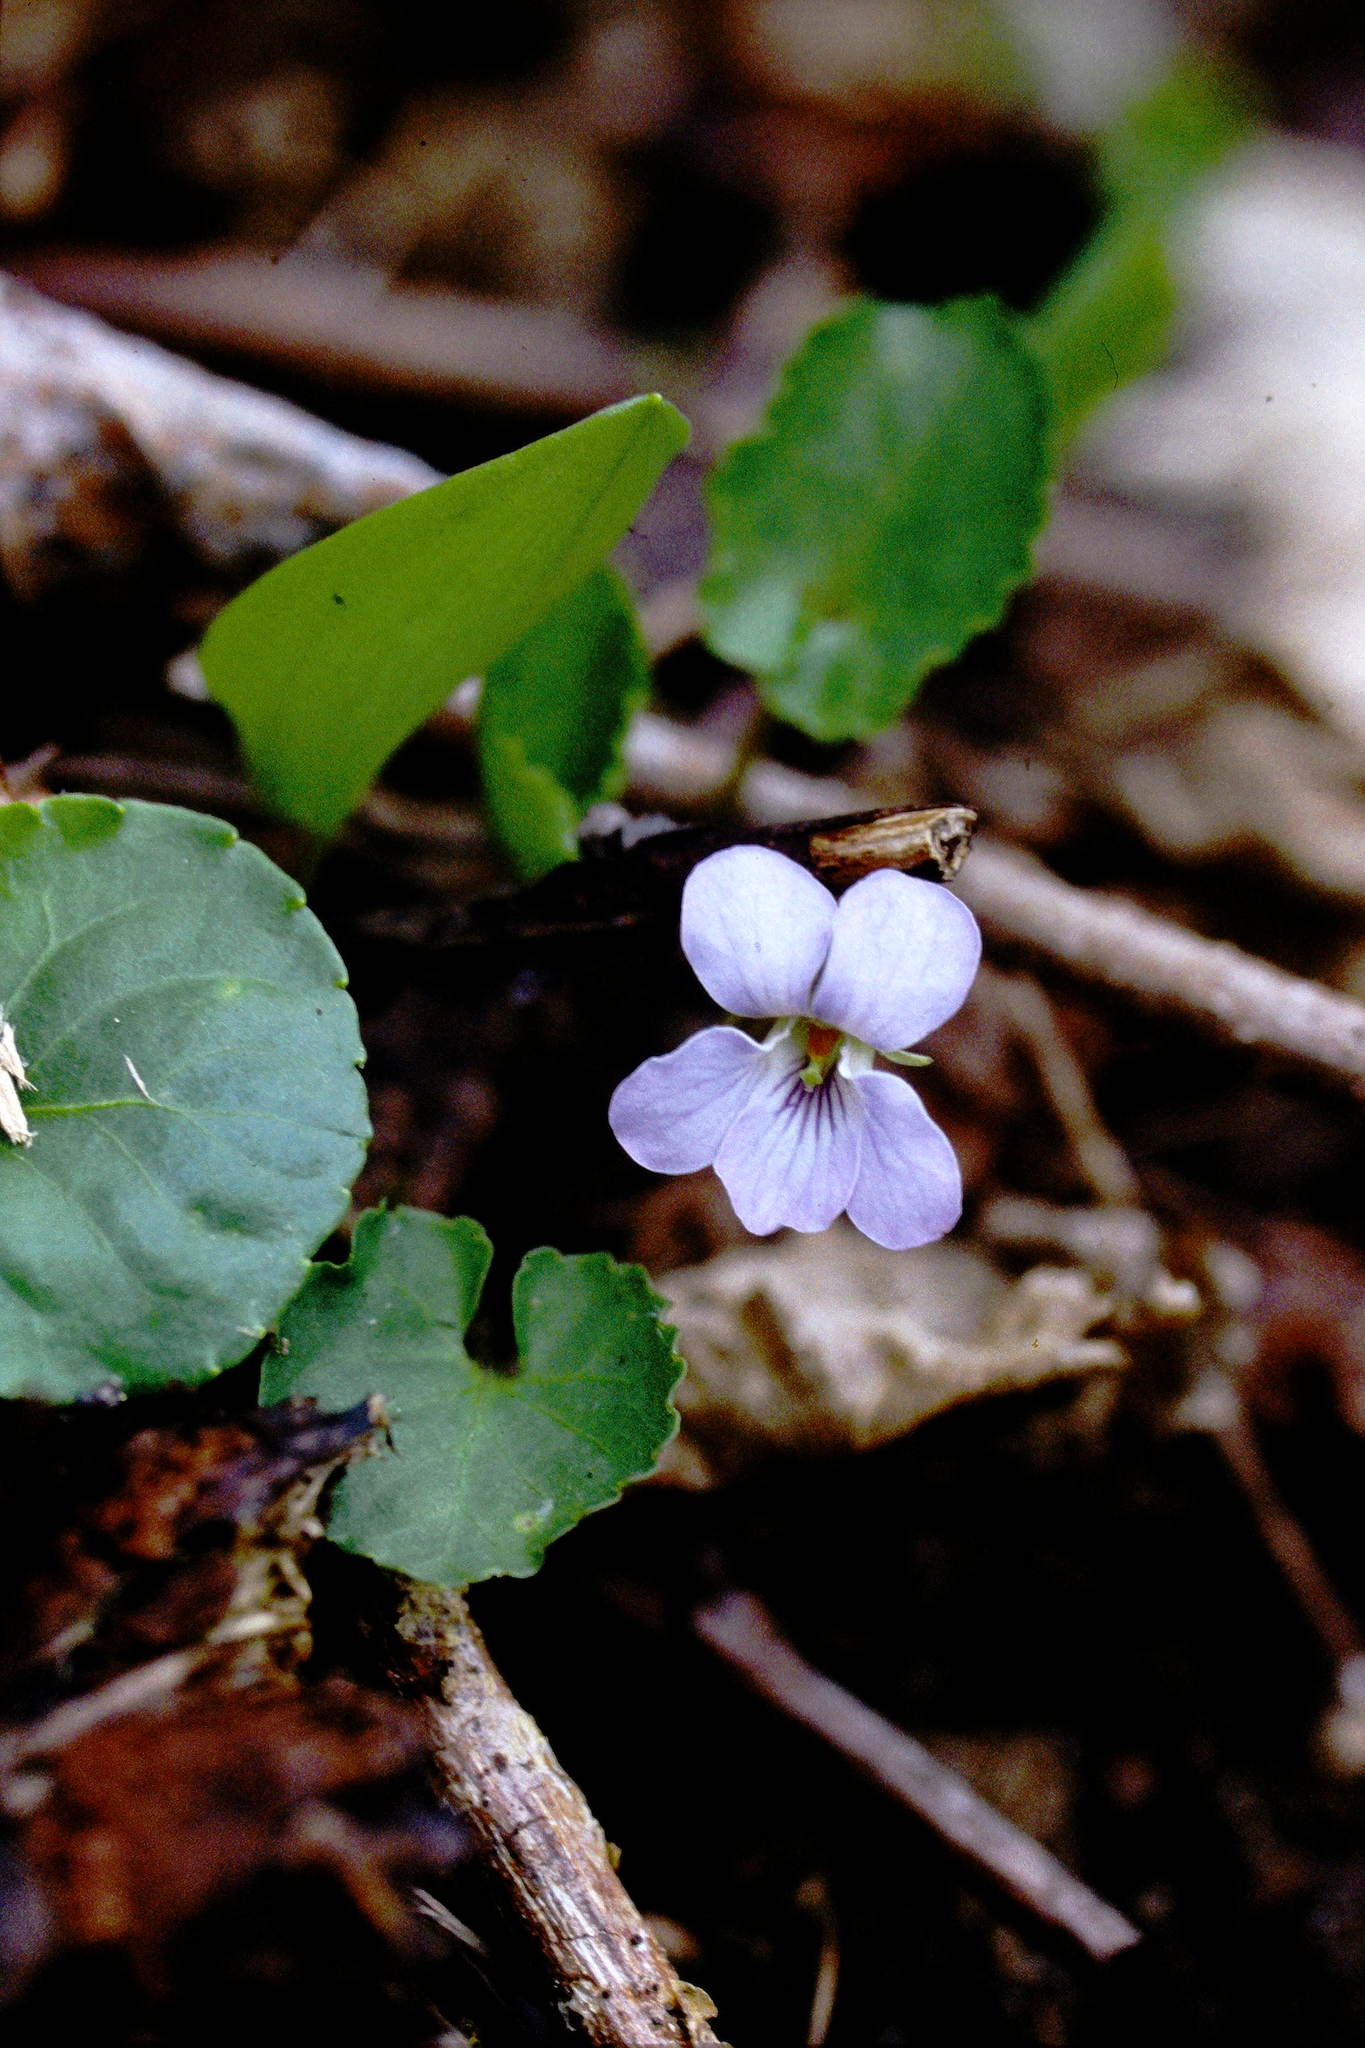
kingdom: Plantae
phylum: Tracheophyta
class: Magnoliopsida
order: Malpighiales
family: Violaceae
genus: Viola
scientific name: Viola selkirkii
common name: Selkirk's violet
